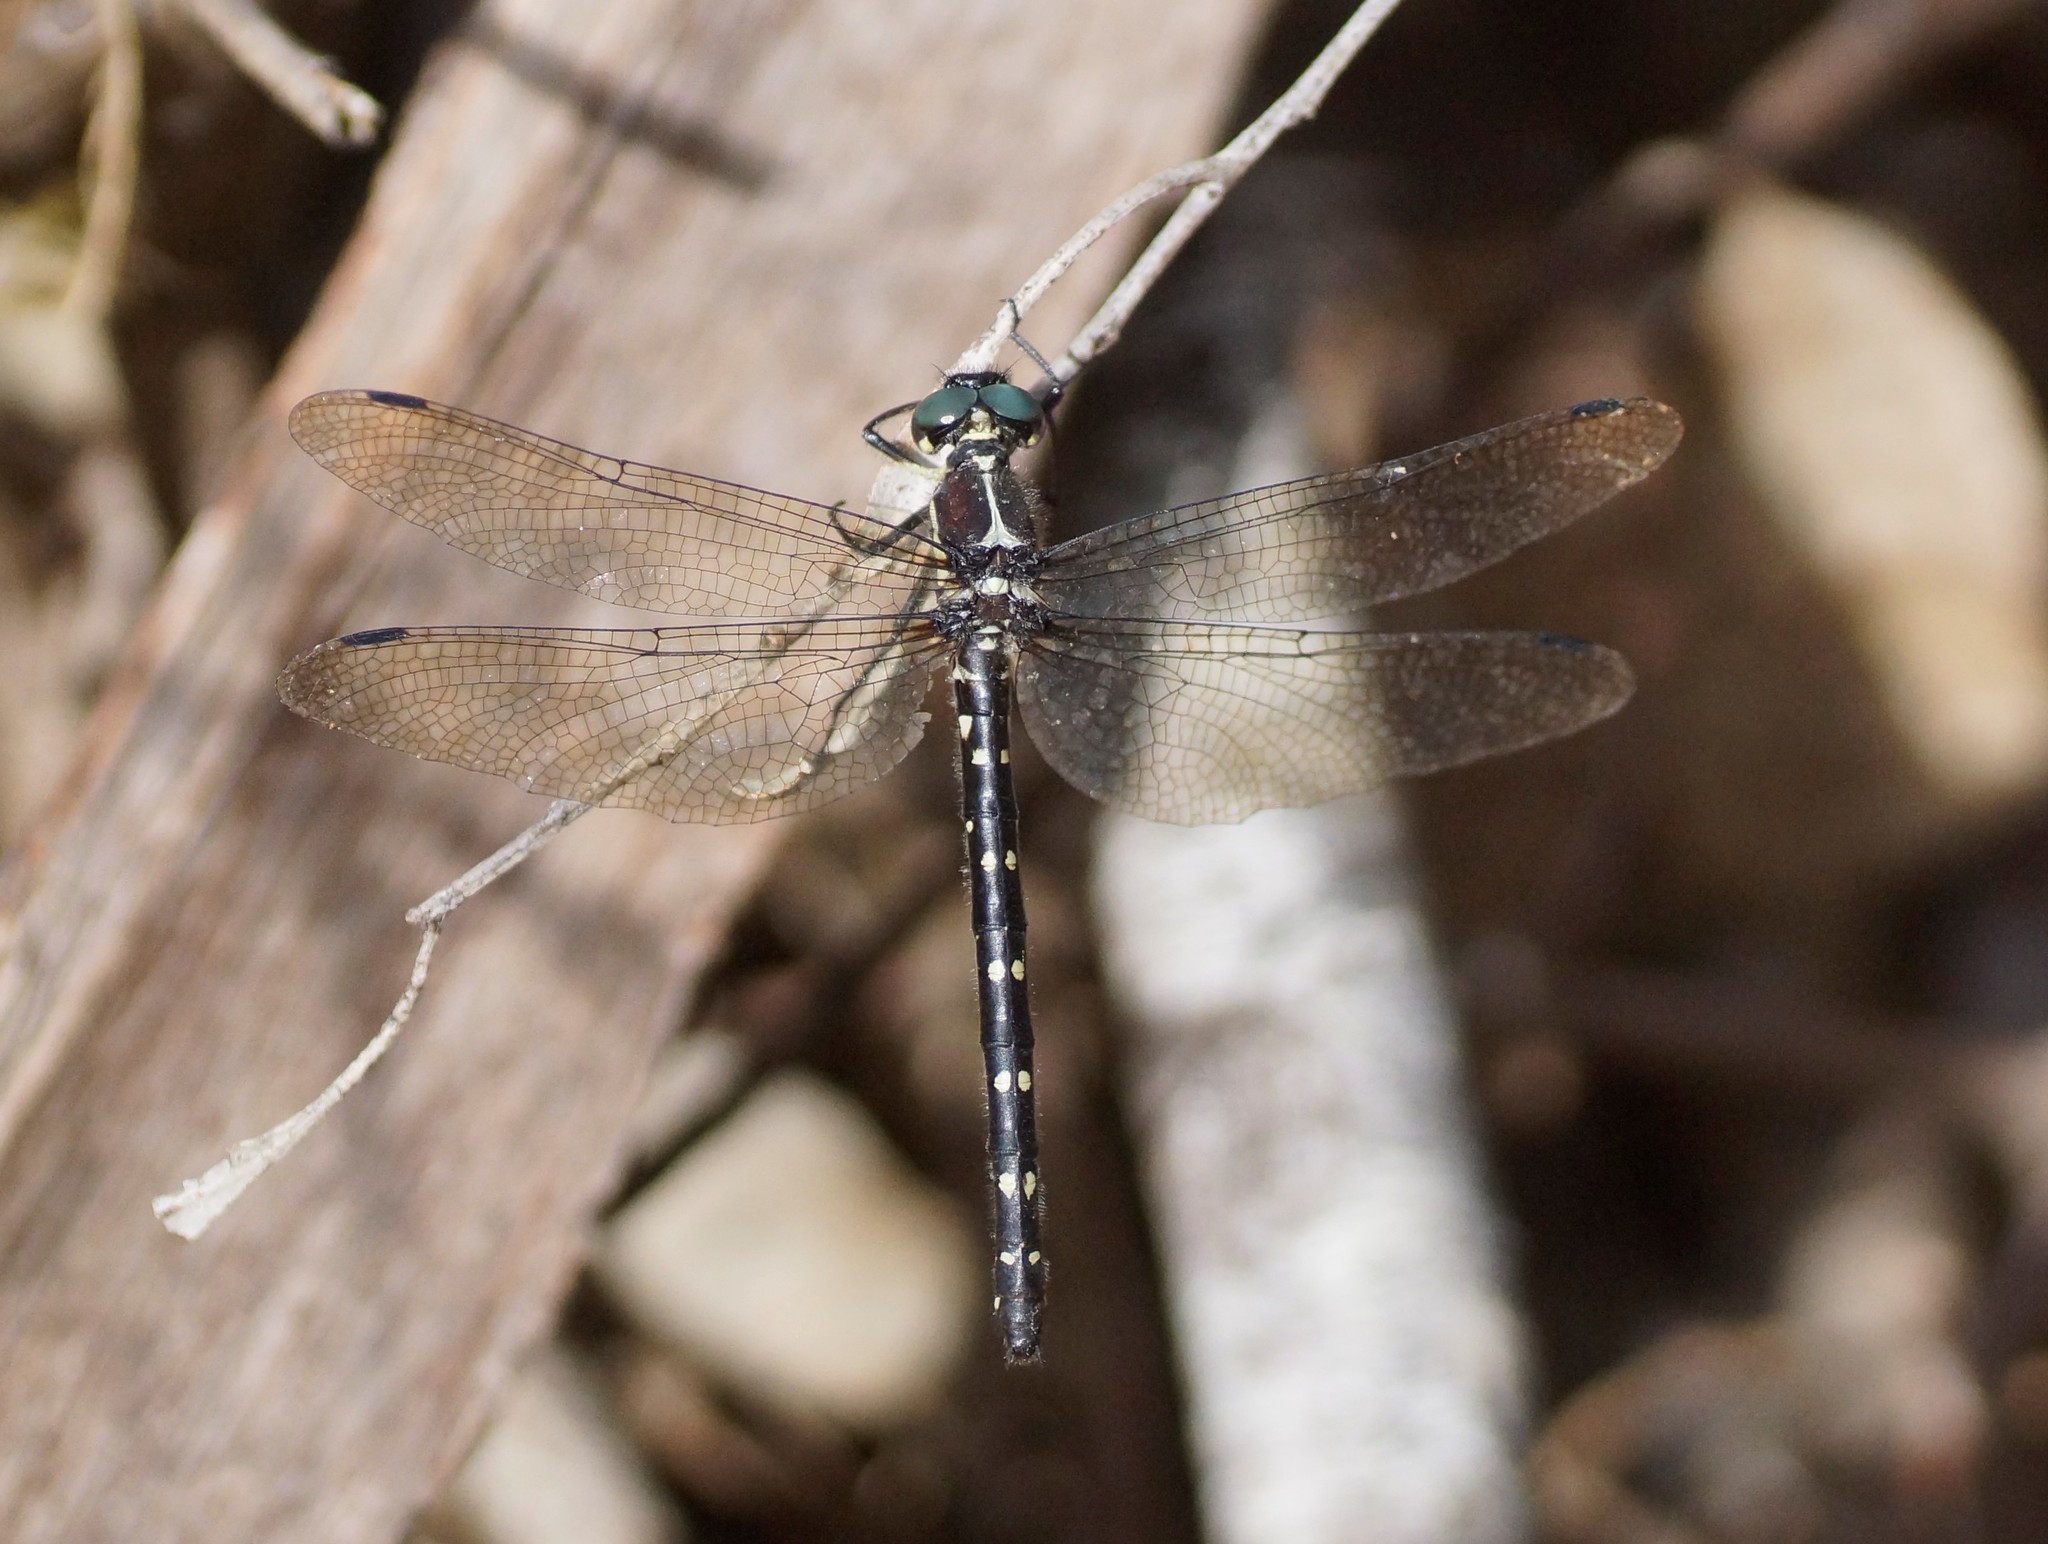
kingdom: Animalia
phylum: Arthropoda
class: Insecta
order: Odonata
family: Synthemistidae
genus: Eusynthemis
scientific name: Eusynthemis guttata
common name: Southern tigertail
